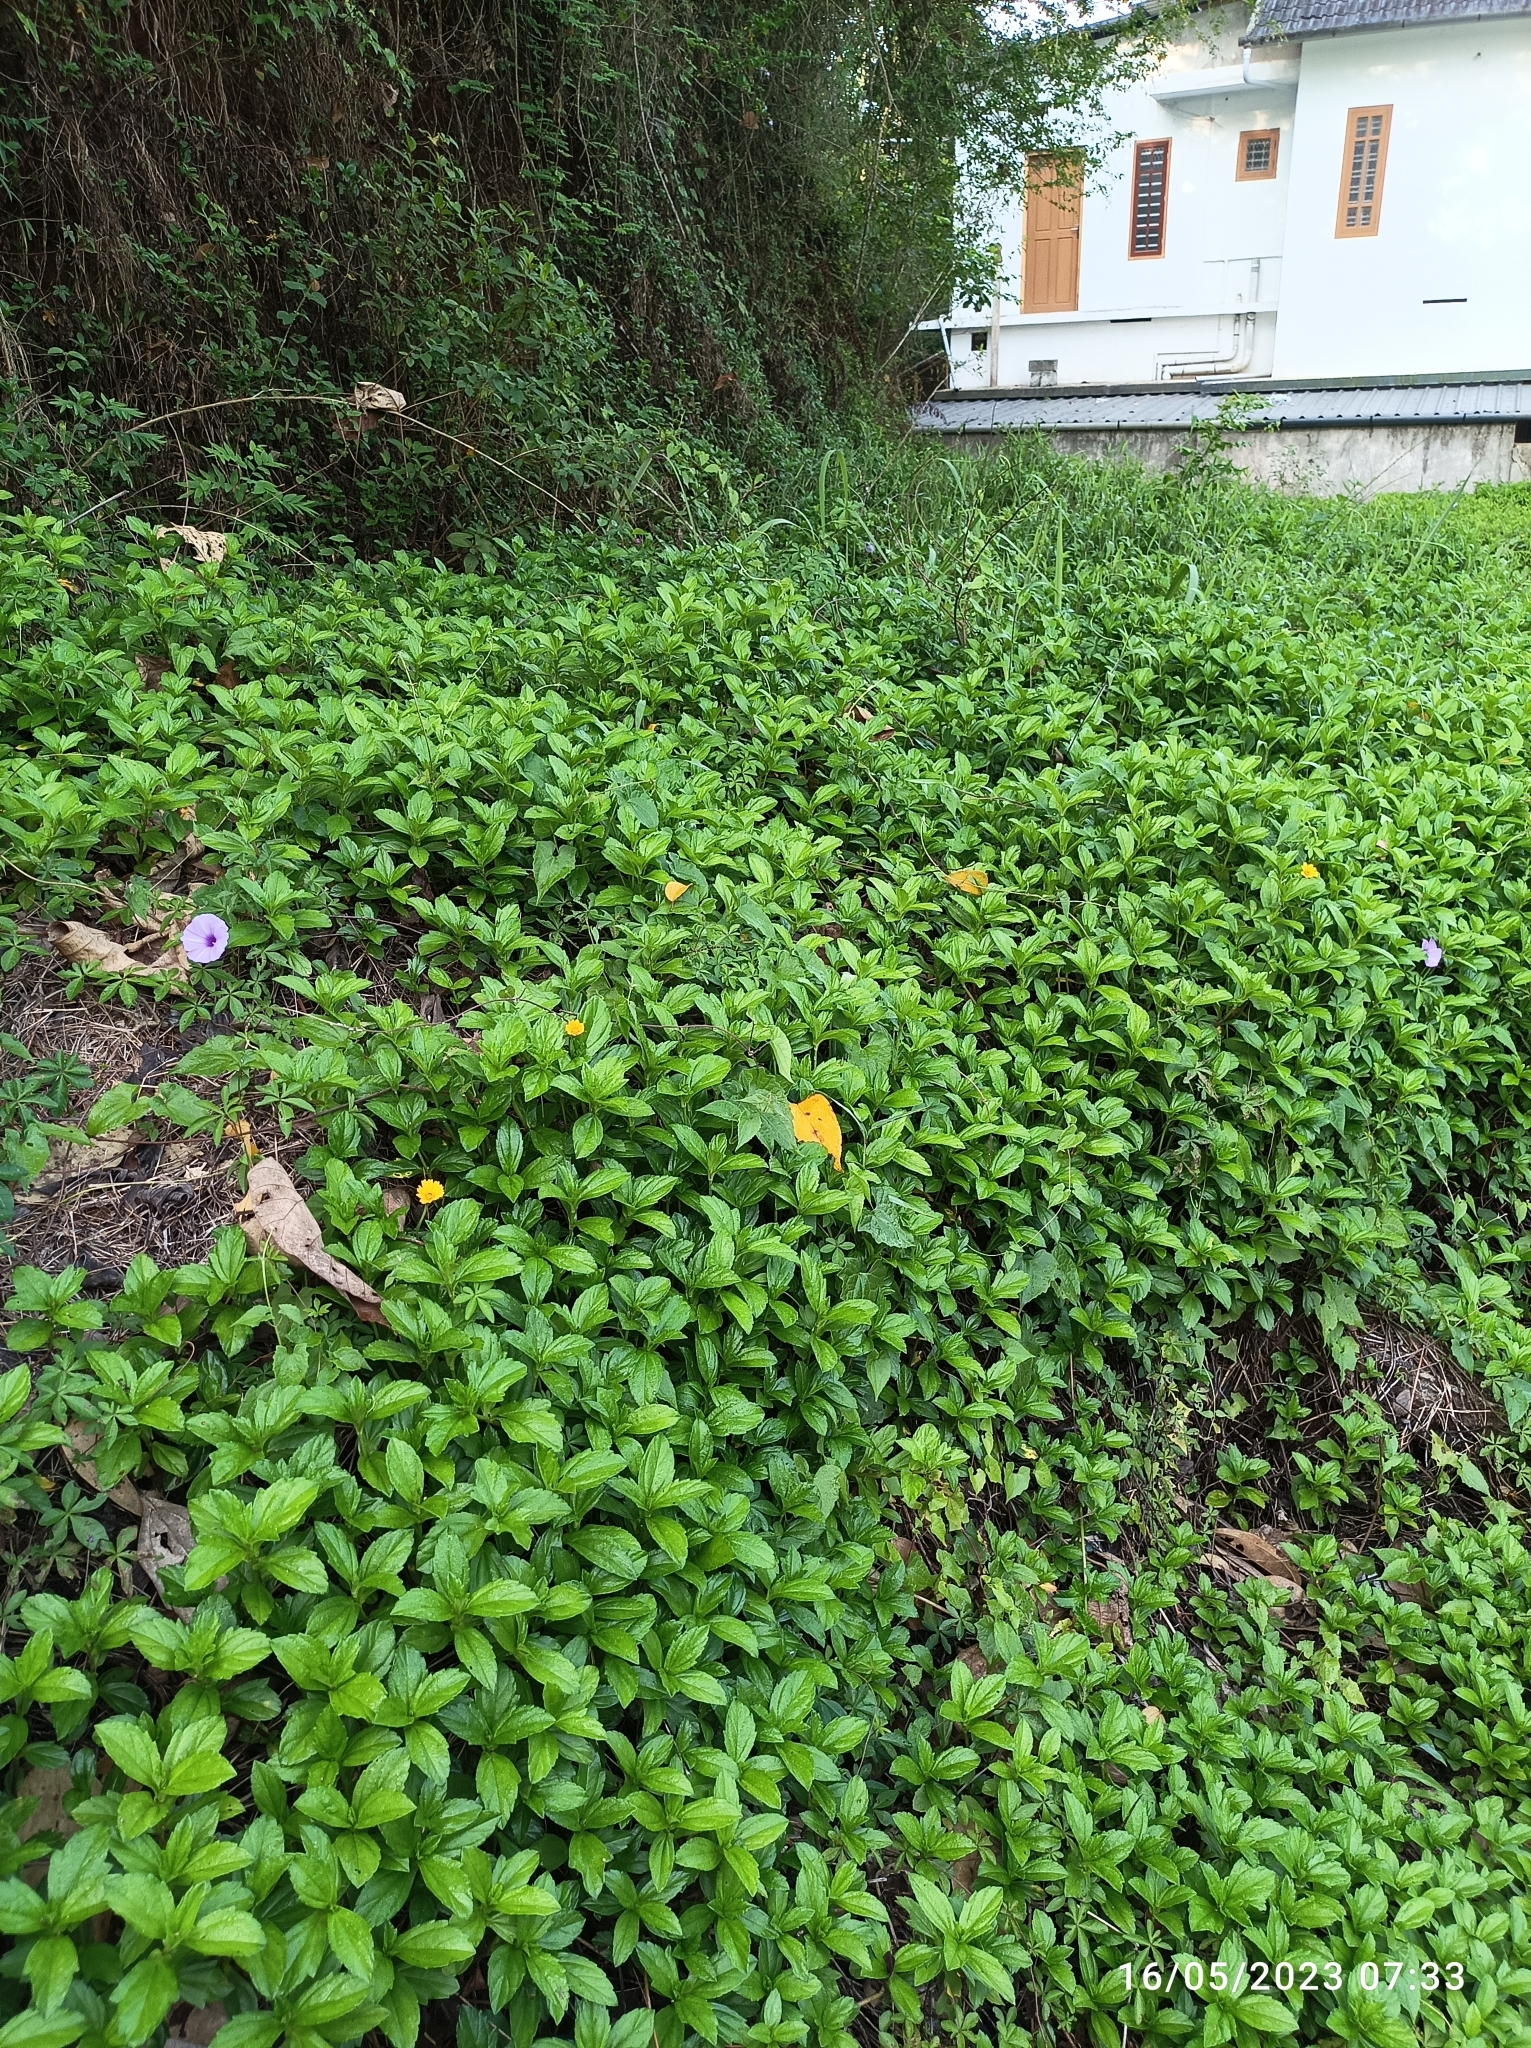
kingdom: Plantae
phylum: Tracheophyta
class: Magnoliopsida
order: Asterales
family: Asteraceae
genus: Sphagneticola
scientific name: Sphagneticola trilobata
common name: Bay biscayne creeping-oxeye
